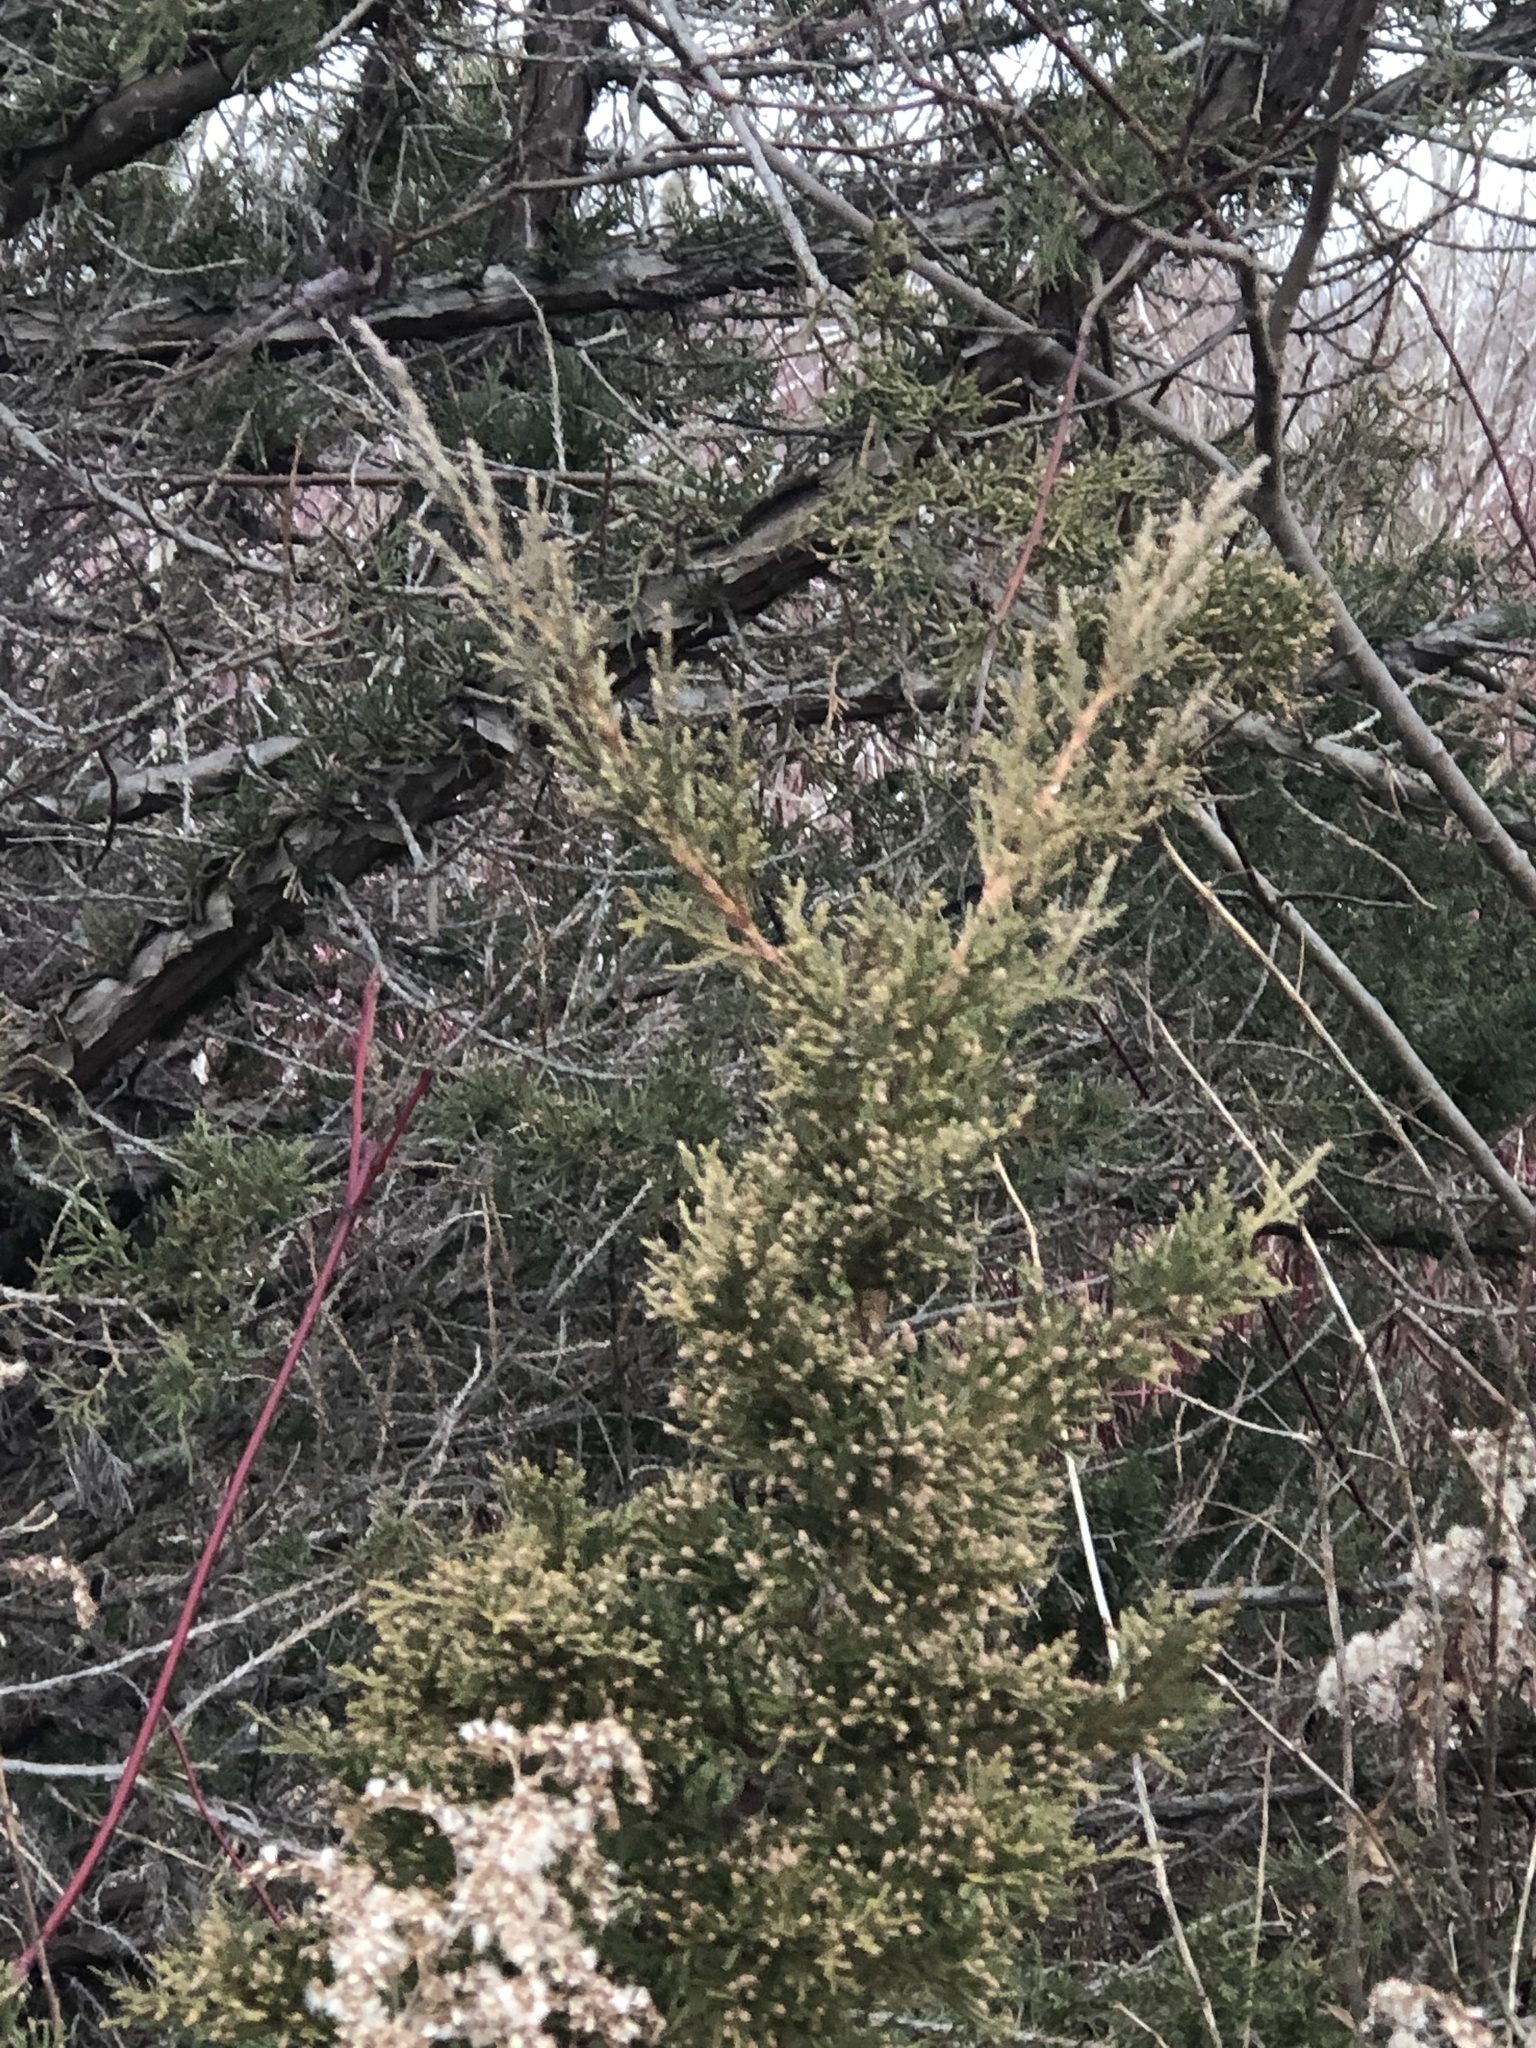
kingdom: Plantae
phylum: Tracheophyta
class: Pinopsida
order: Pinales
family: Cupressaceae
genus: Juniperus
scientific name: Juniperus virginiana
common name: Red juniper
